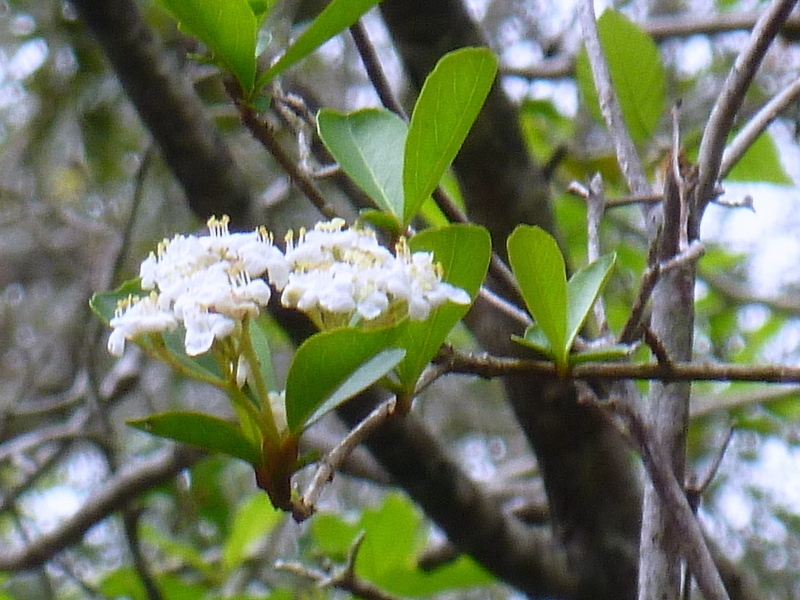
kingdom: Plantae
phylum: Tracheophyta
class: Magnoliopsida
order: Dipsacales
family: Viburnaceae
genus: Viburnum
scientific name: Viburnum obovatum
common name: Walter's viburnum
